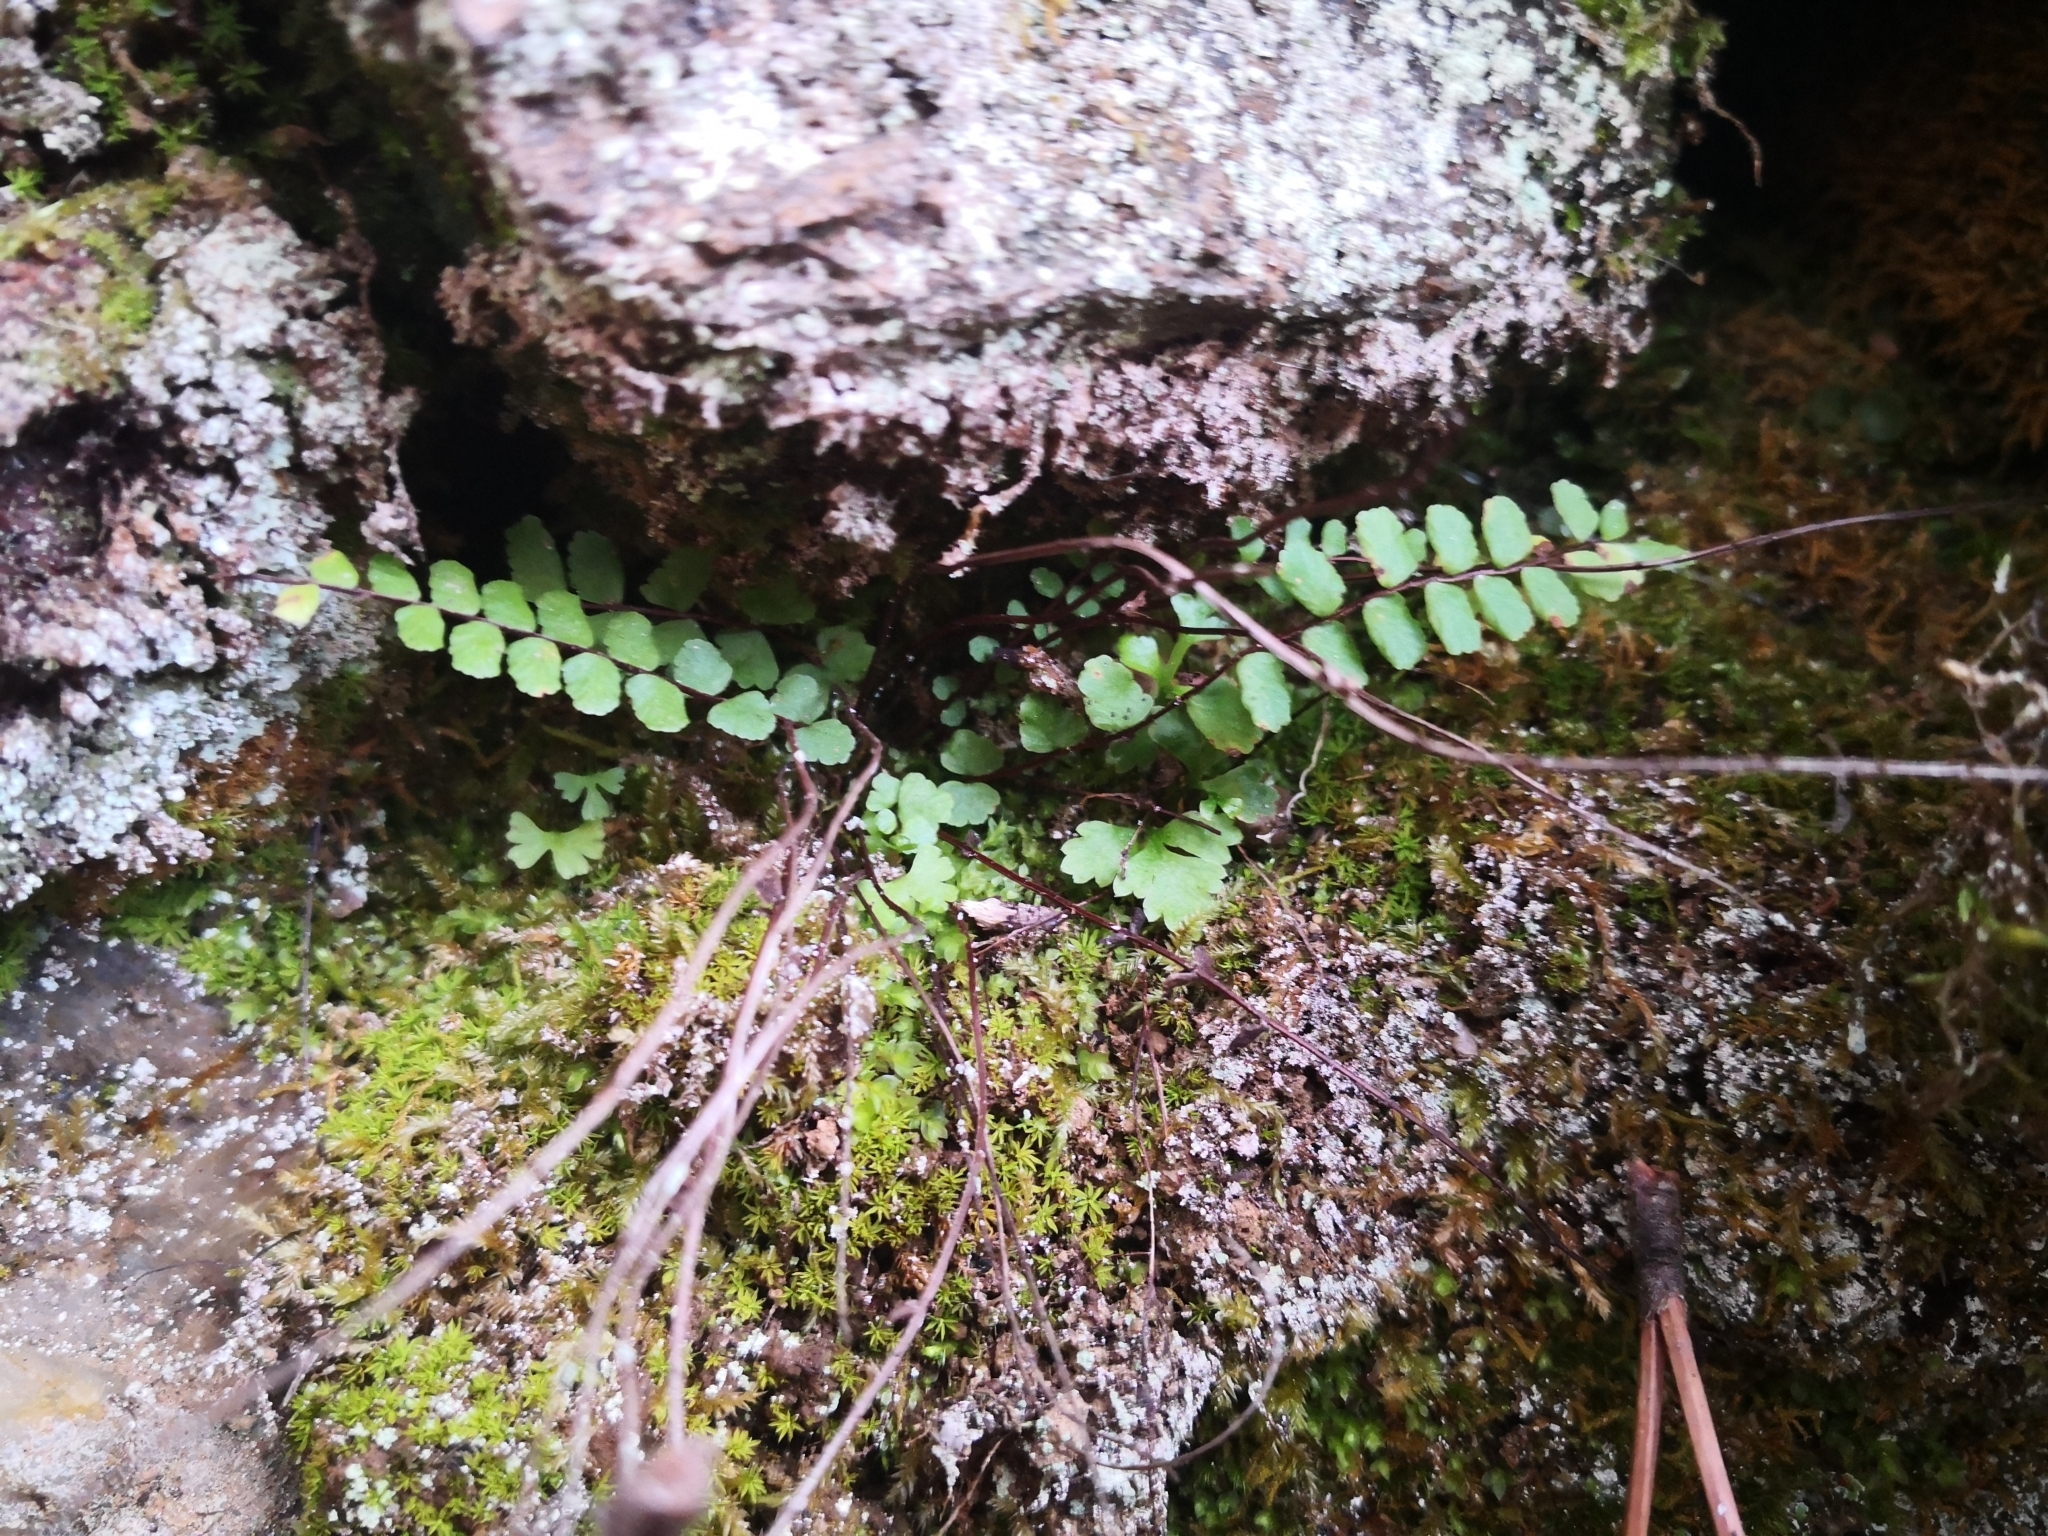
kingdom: Plantae
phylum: Tracheophyta
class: Polypodiopsida
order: Polypodiales
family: Aspleniaceae
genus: Asplenium
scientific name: Asplenium trichomanes
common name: Maidenhair spleenwort
